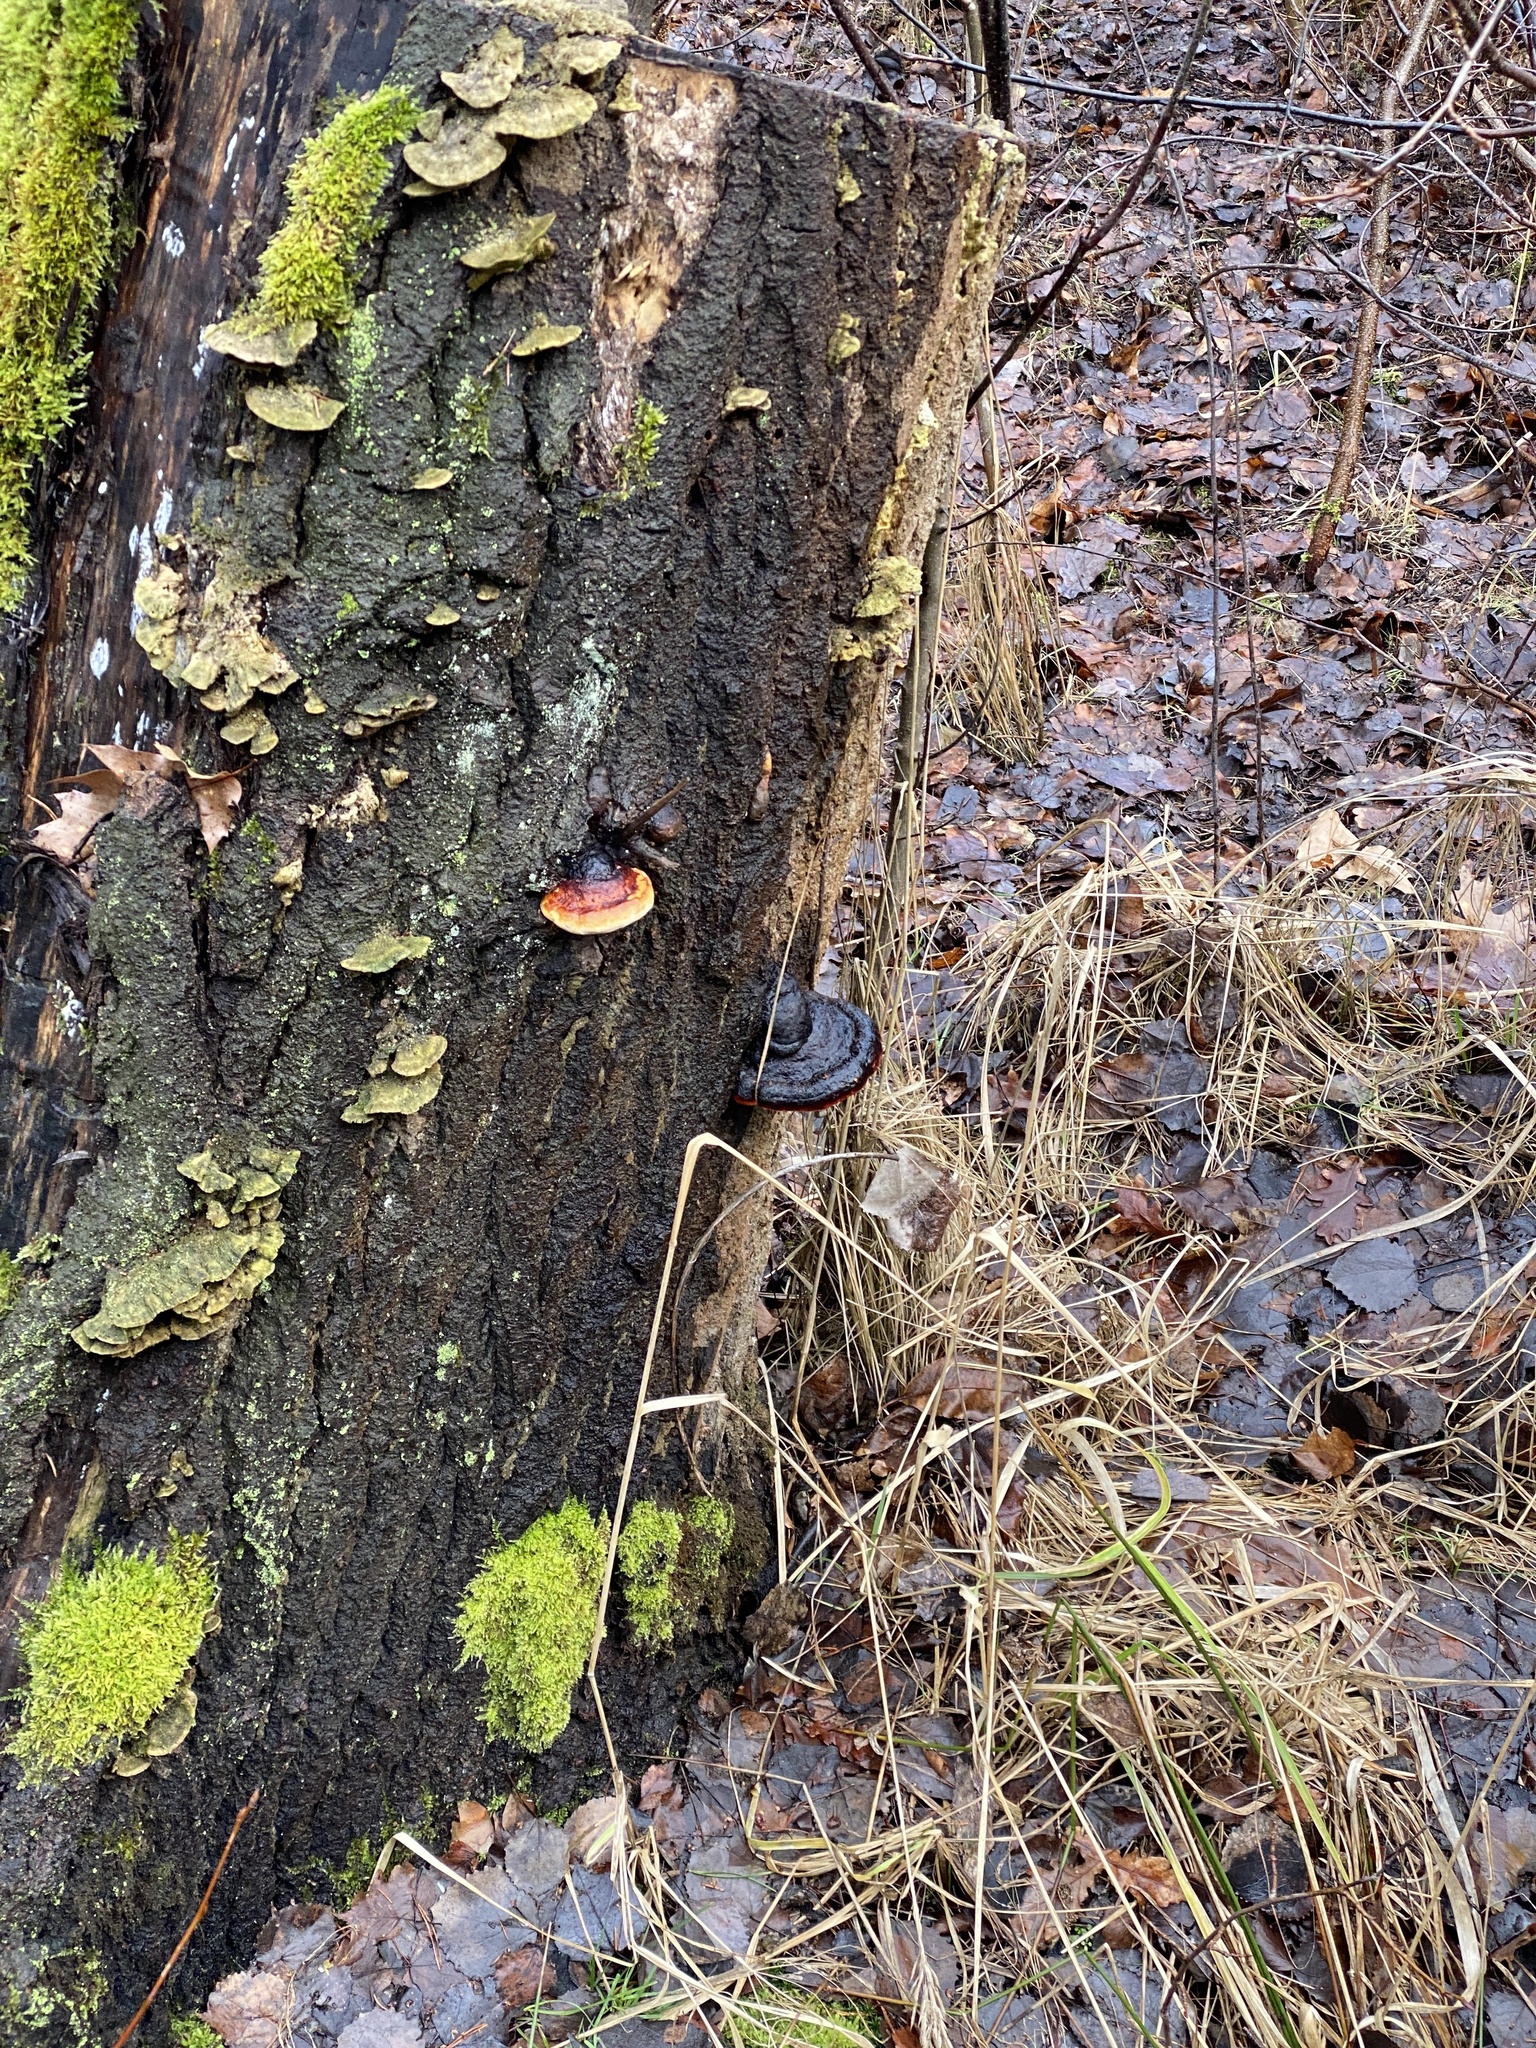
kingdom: Fungi
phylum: Basidiomycota
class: Agaricomycetes
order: Polyporales
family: Fomitopsidaceae
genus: Fomitopsis
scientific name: Fomitopsis pinicola
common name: Red-belted bracket
